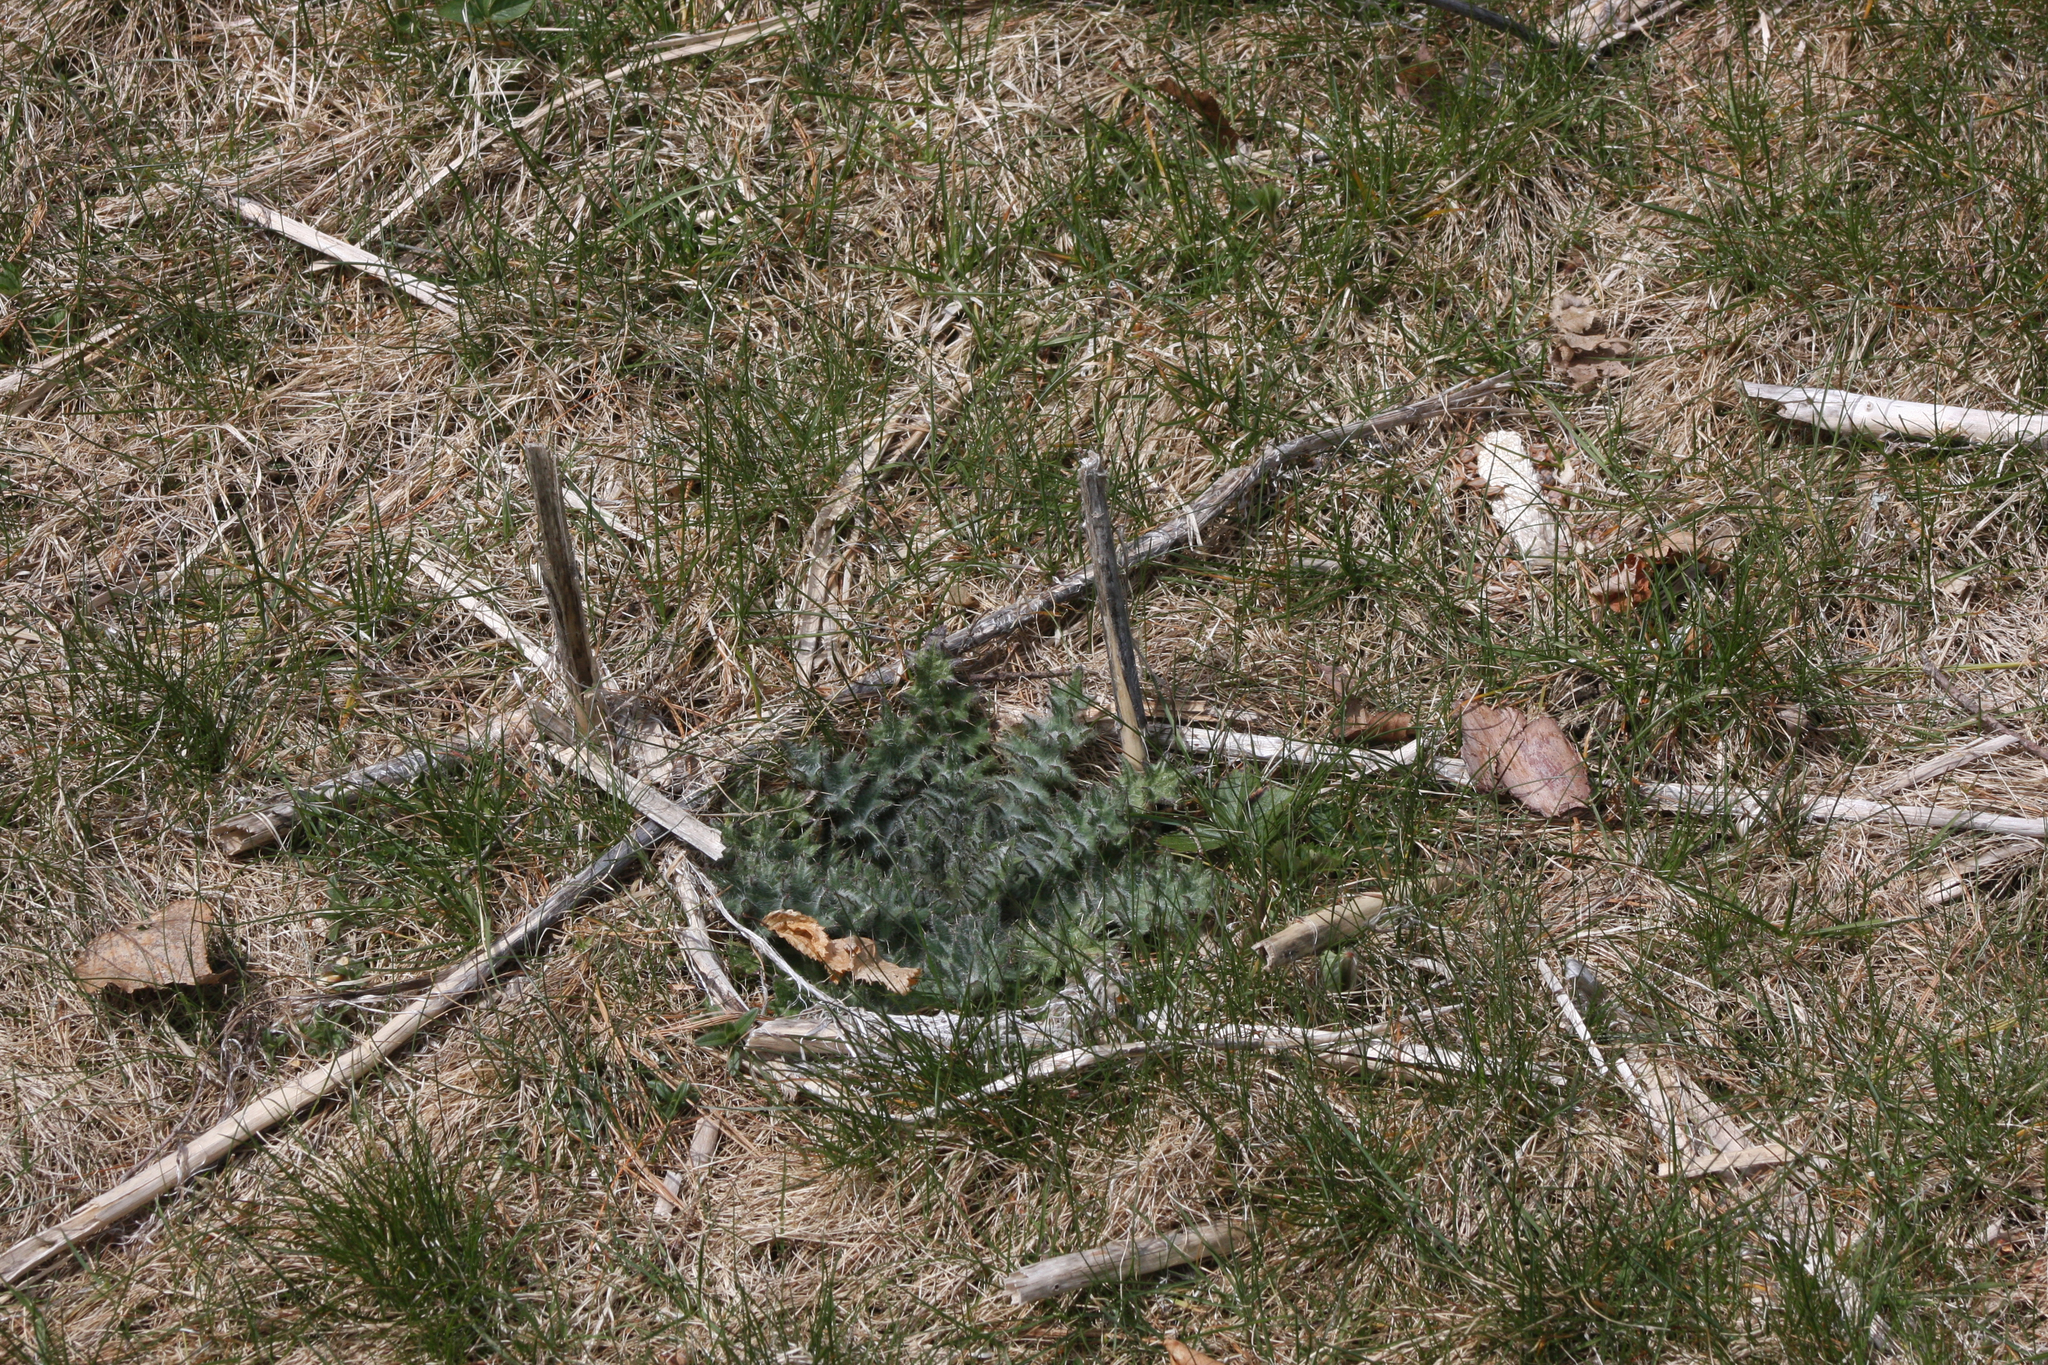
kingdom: Plantae
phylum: Tracheophyta
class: Magnoliopsida
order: Asterales
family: Asteraceae
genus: Cirsium
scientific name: Cirsium vulgare
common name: Bull thistle
